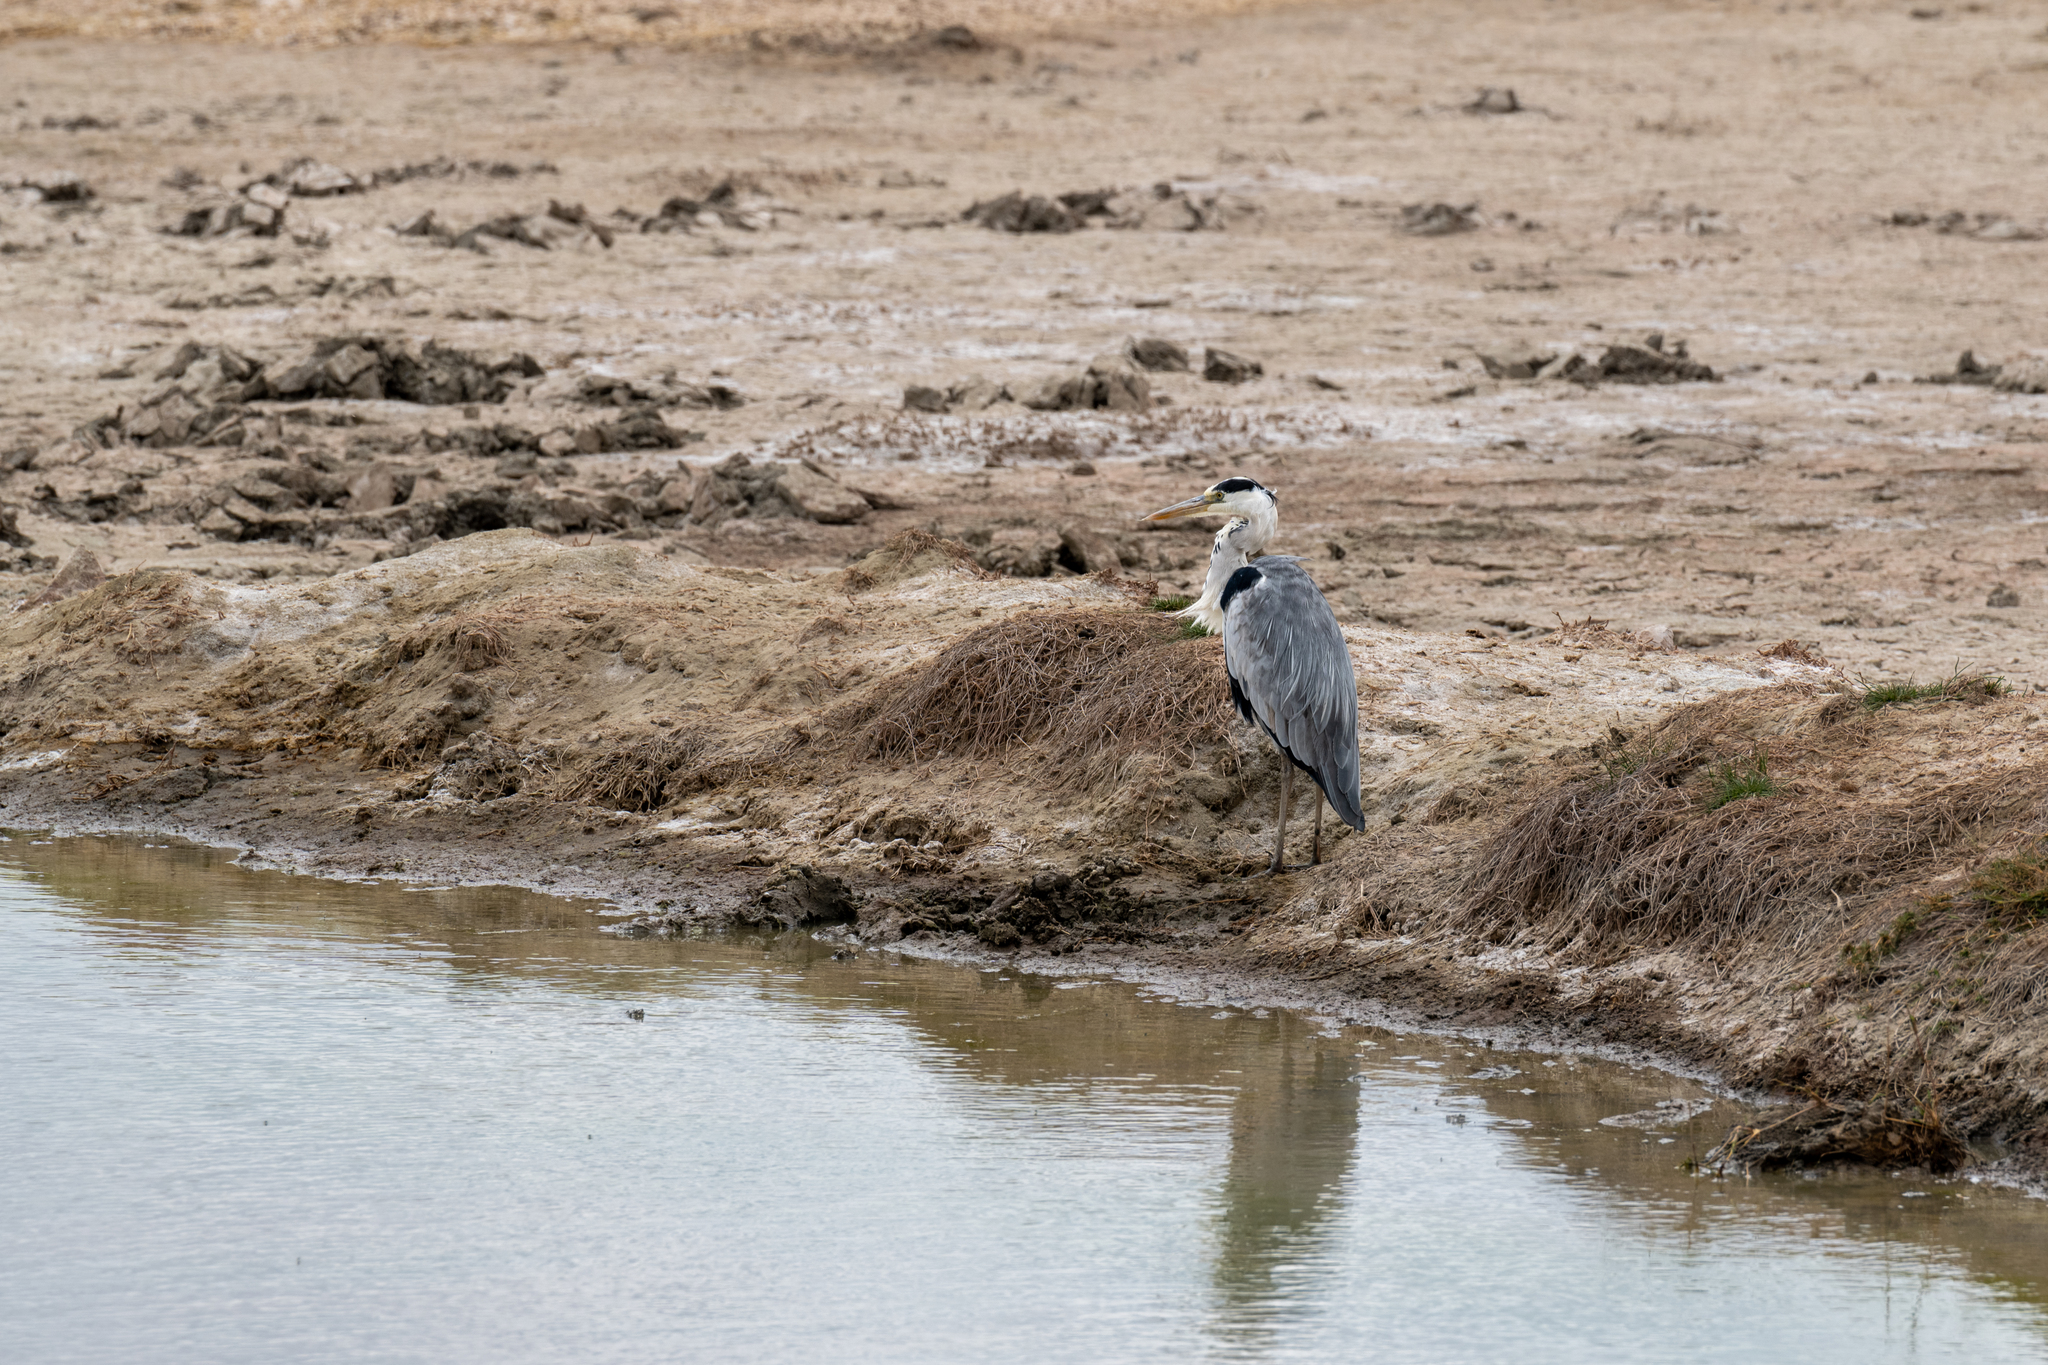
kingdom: Animalia
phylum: Chordata
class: Aves
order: Pelecaniformes
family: Ardeidae
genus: Ardea
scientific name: Ardea cinerea
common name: Grey heron
